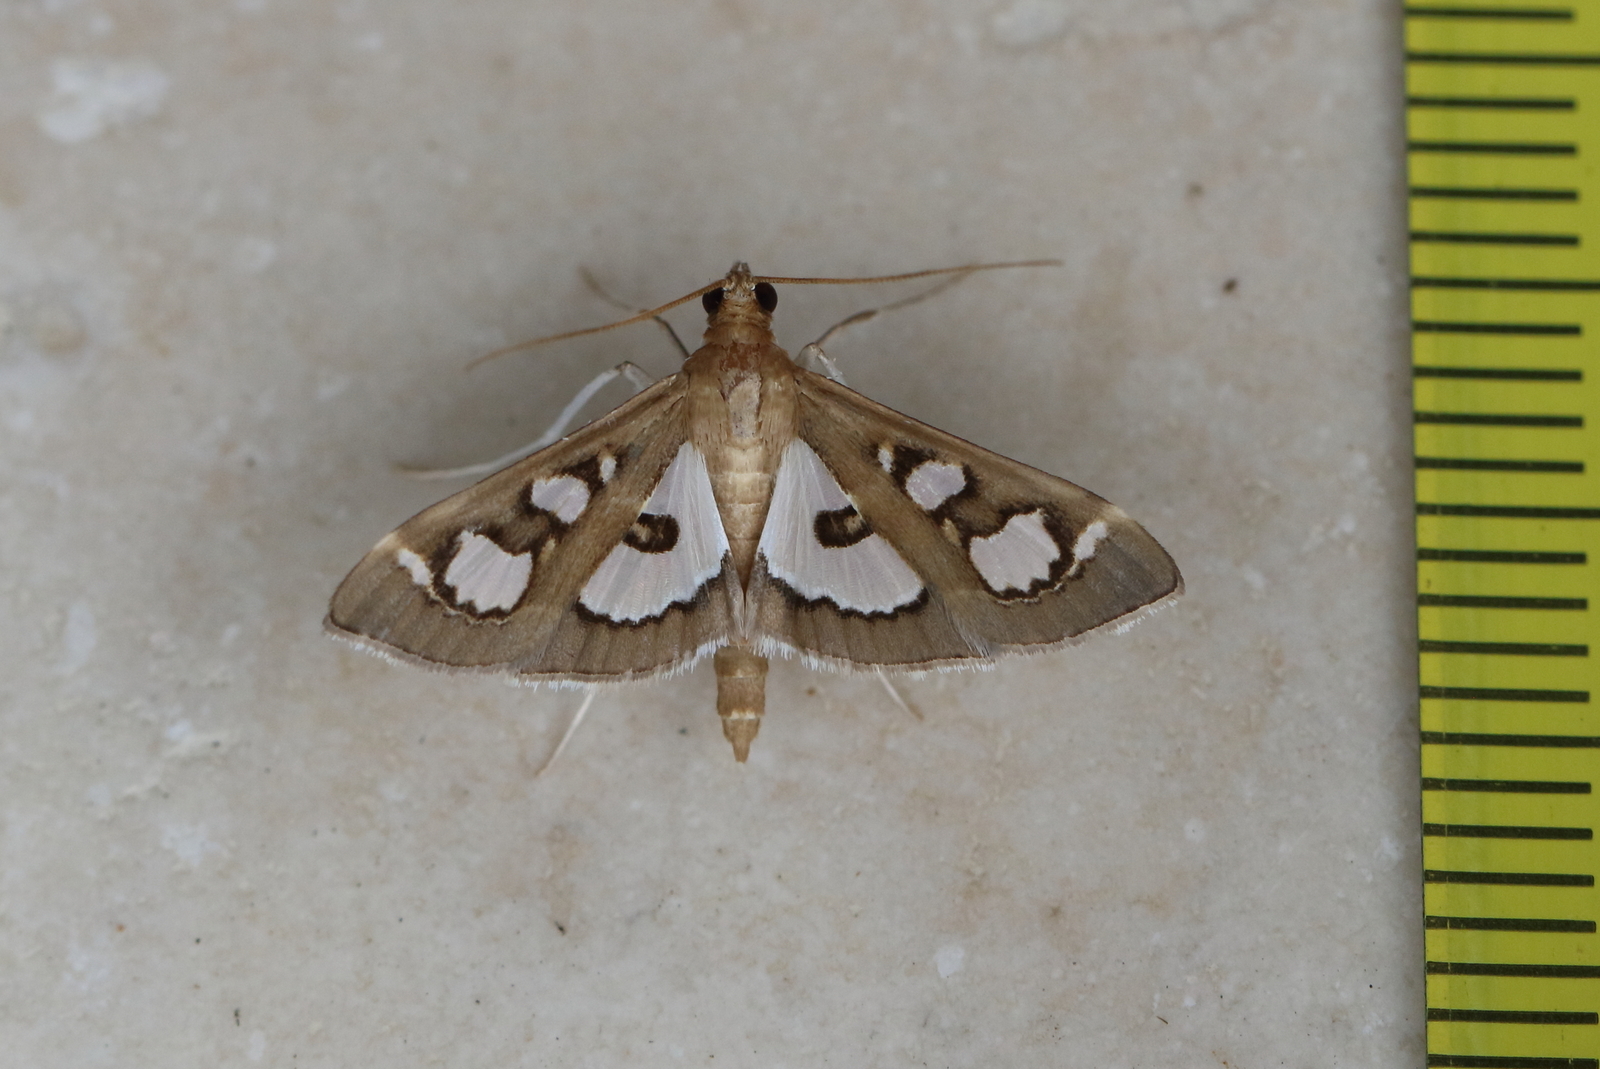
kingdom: Animalia
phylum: Arthropoda
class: Insecta
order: Lepidoptera
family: Crambidae
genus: Glyphodes
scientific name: Glyphodes microta
